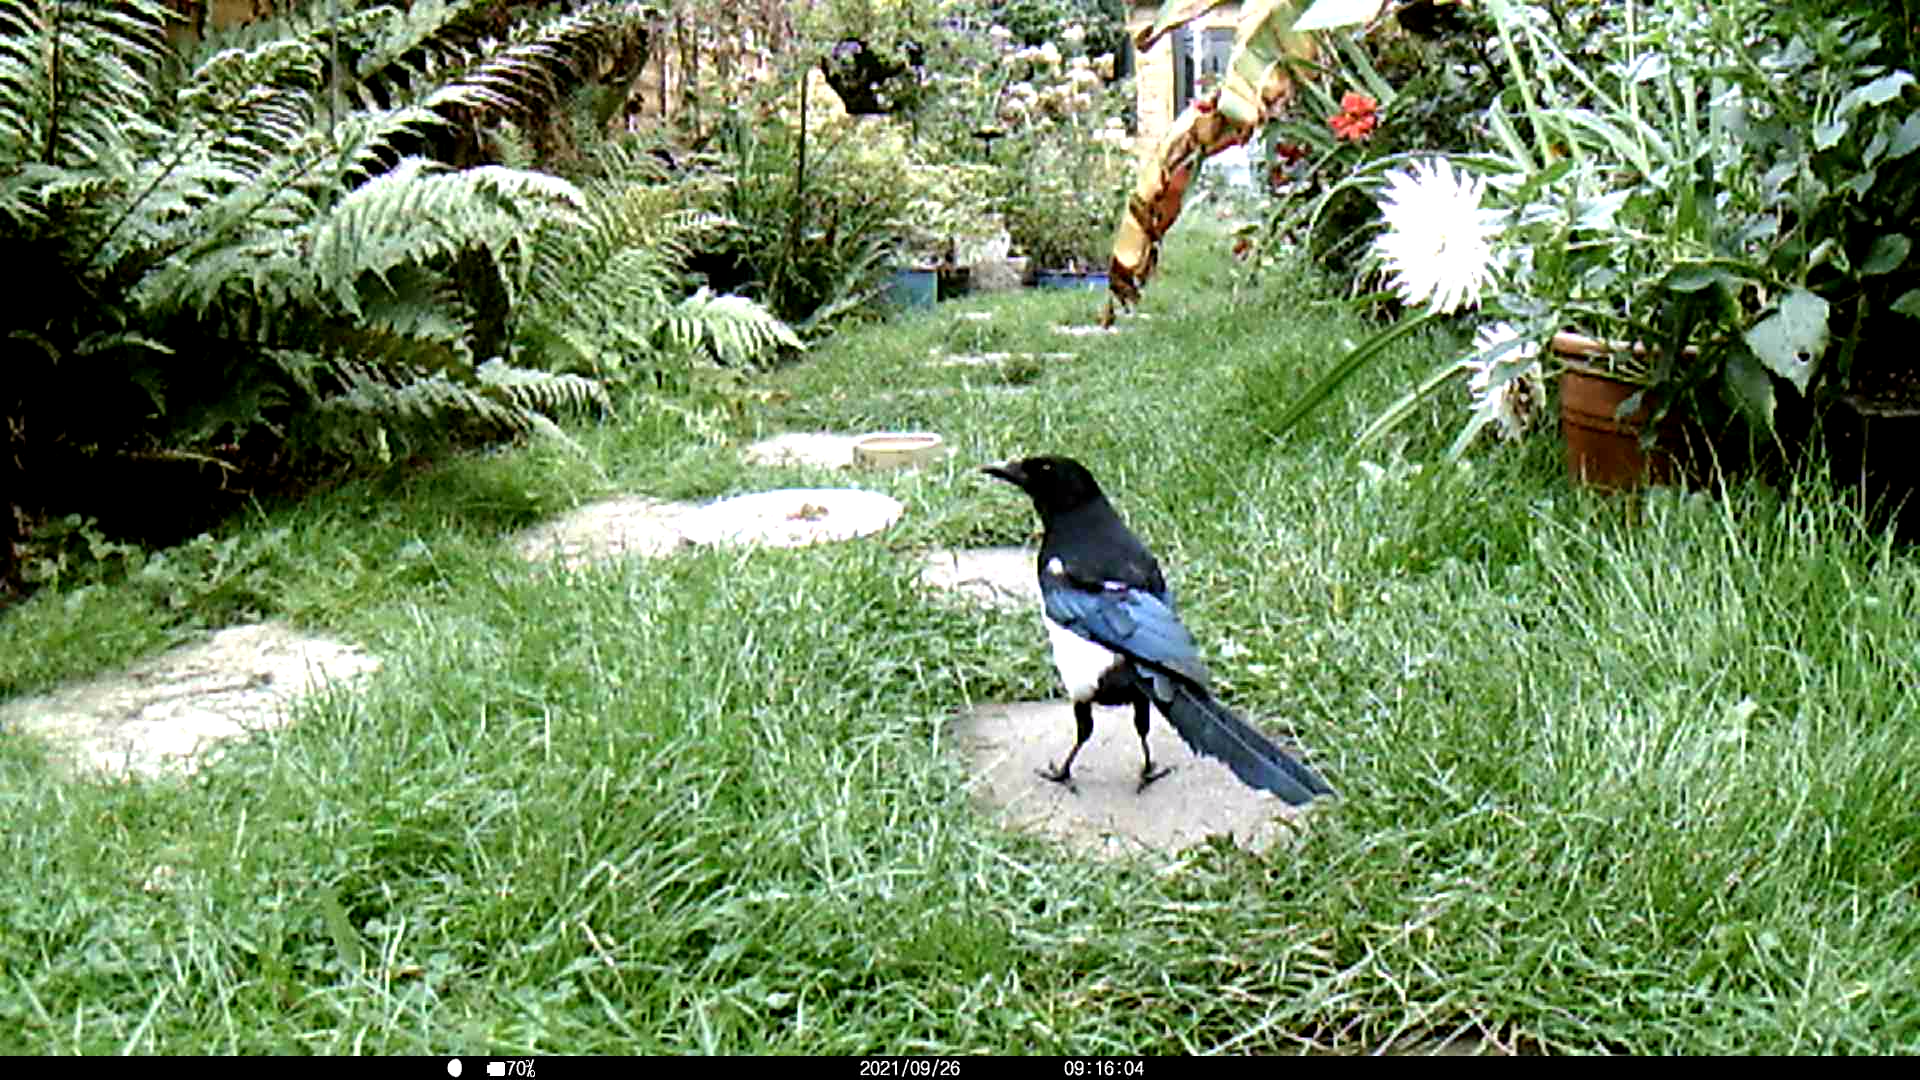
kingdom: Animalia
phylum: Chordata
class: Aves
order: Passeriformes
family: Corvidae
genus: Pica
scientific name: Pica pica
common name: Eurasian magpie
